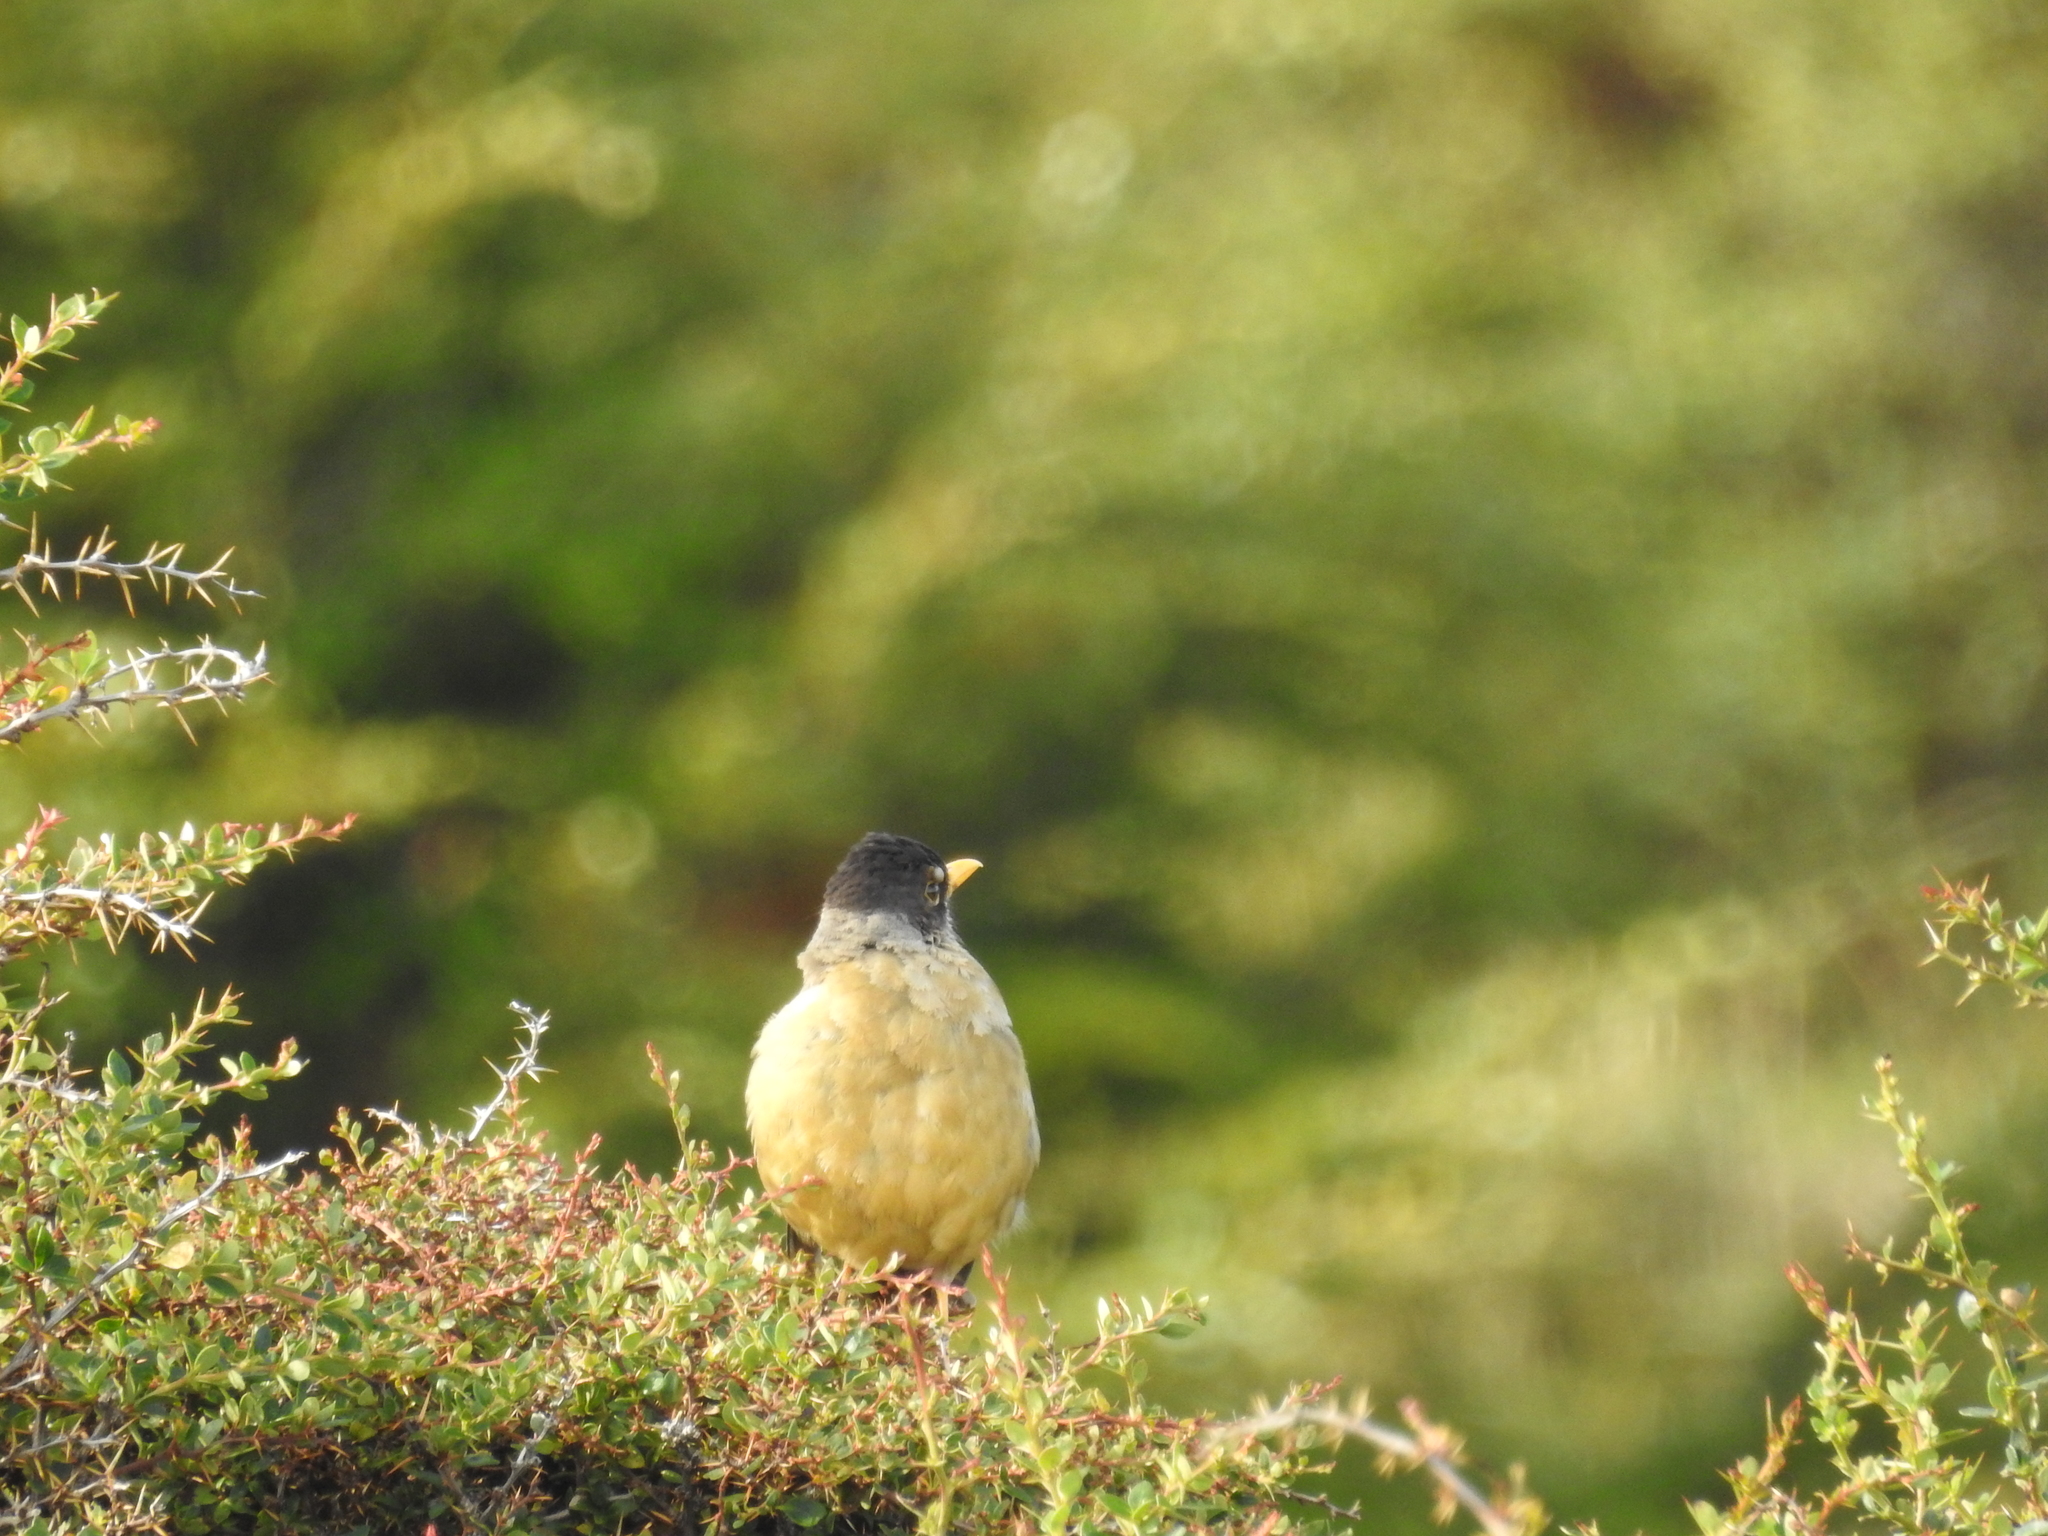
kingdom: Animalia
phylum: Chordata
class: Aves
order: Passeriformes
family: Turdidae
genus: Turdus
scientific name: Turdus falcklandii
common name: Austral thrush
